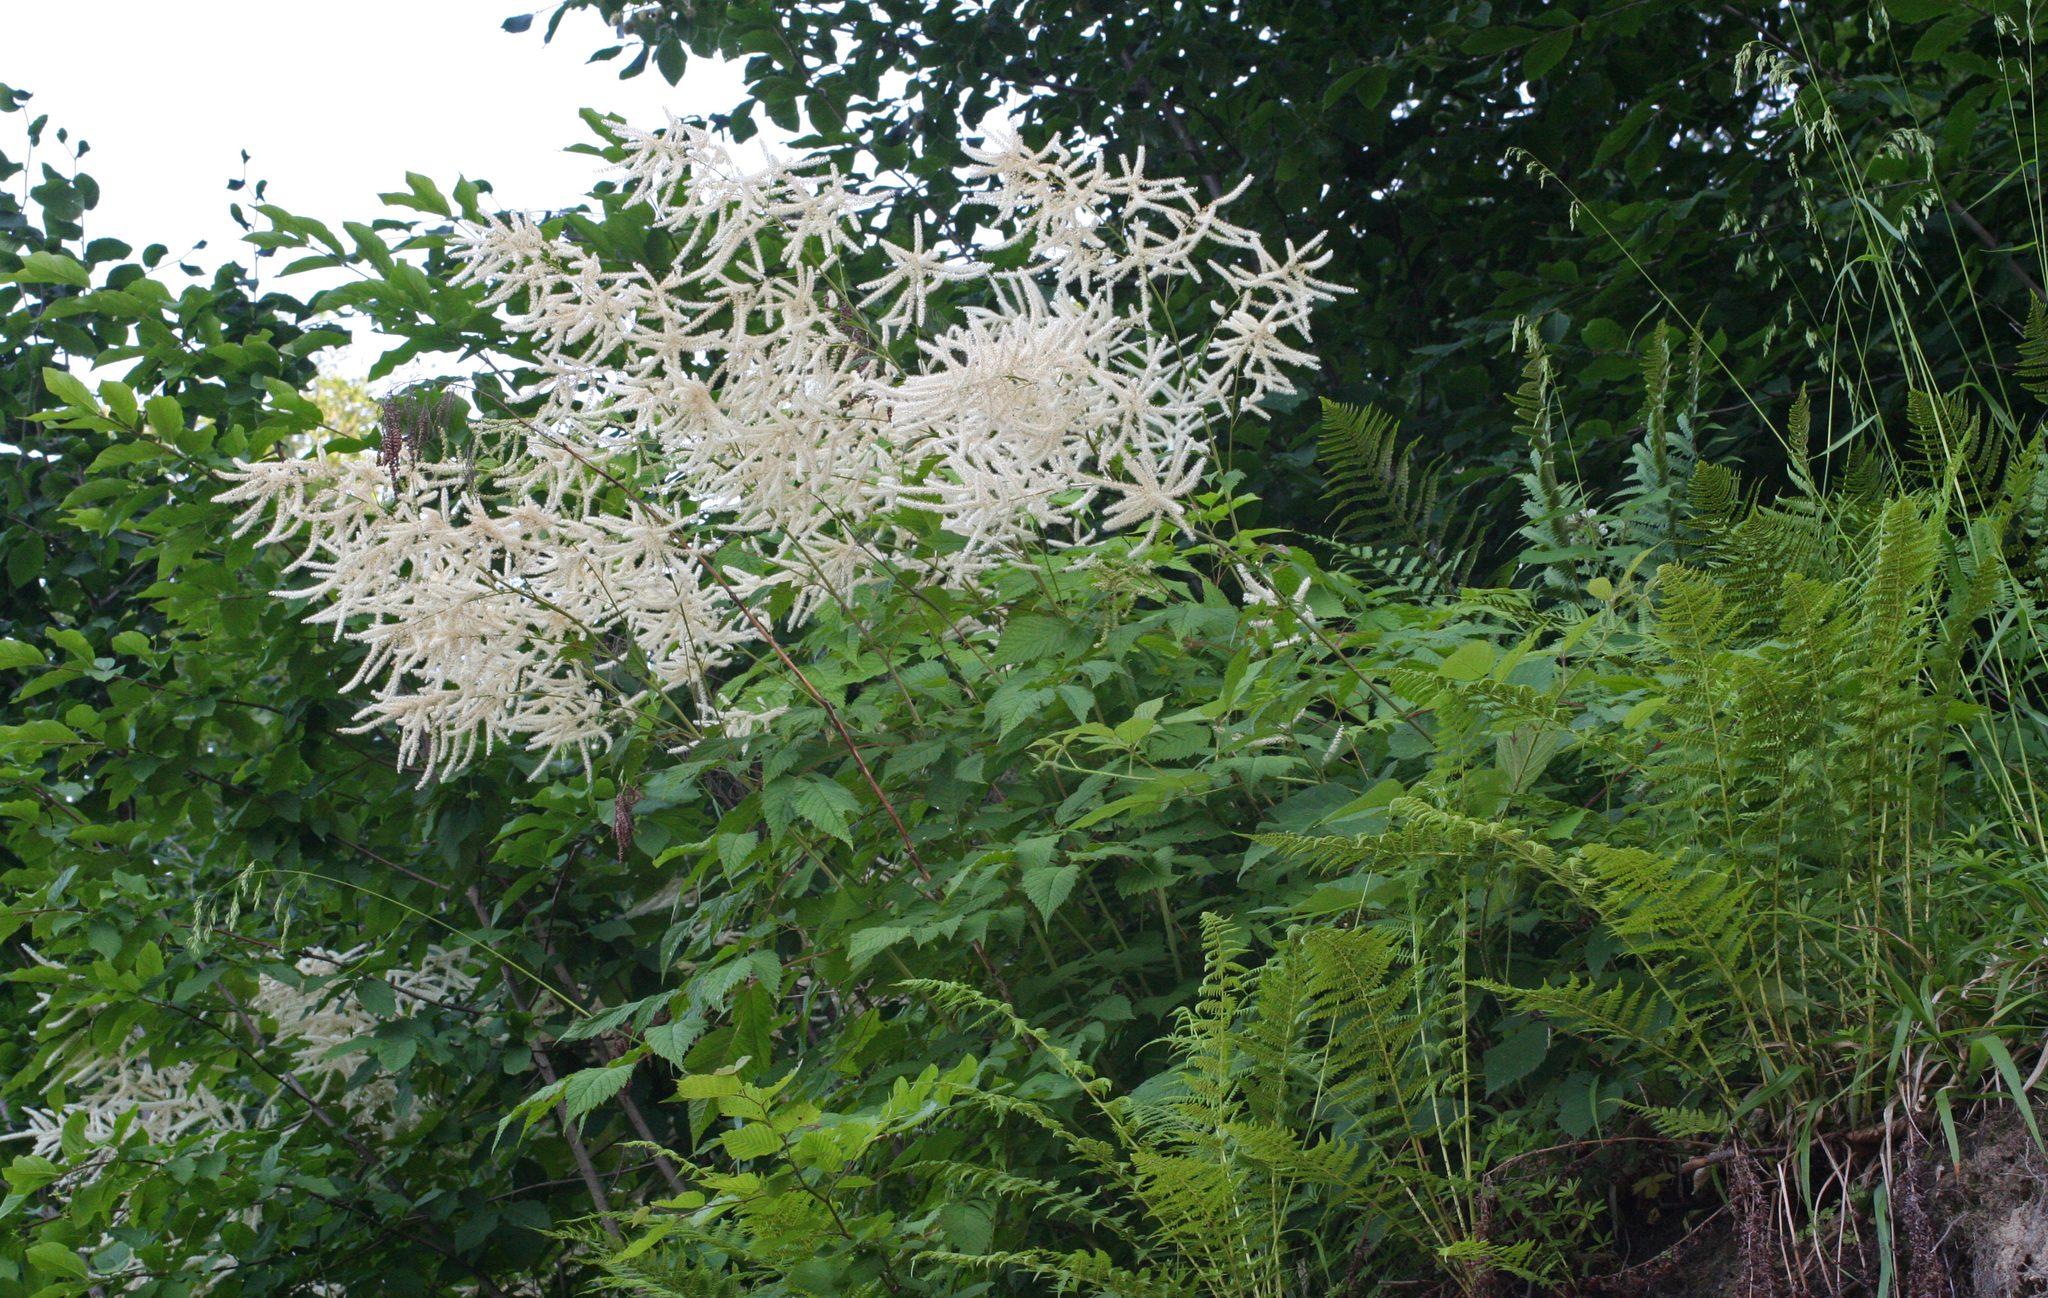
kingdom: Plantae
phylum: Tracheophyta
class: Magnoliopsida
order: Rosales
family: Rosaceae
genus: Aruncus
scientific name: Aruncus sylvester
